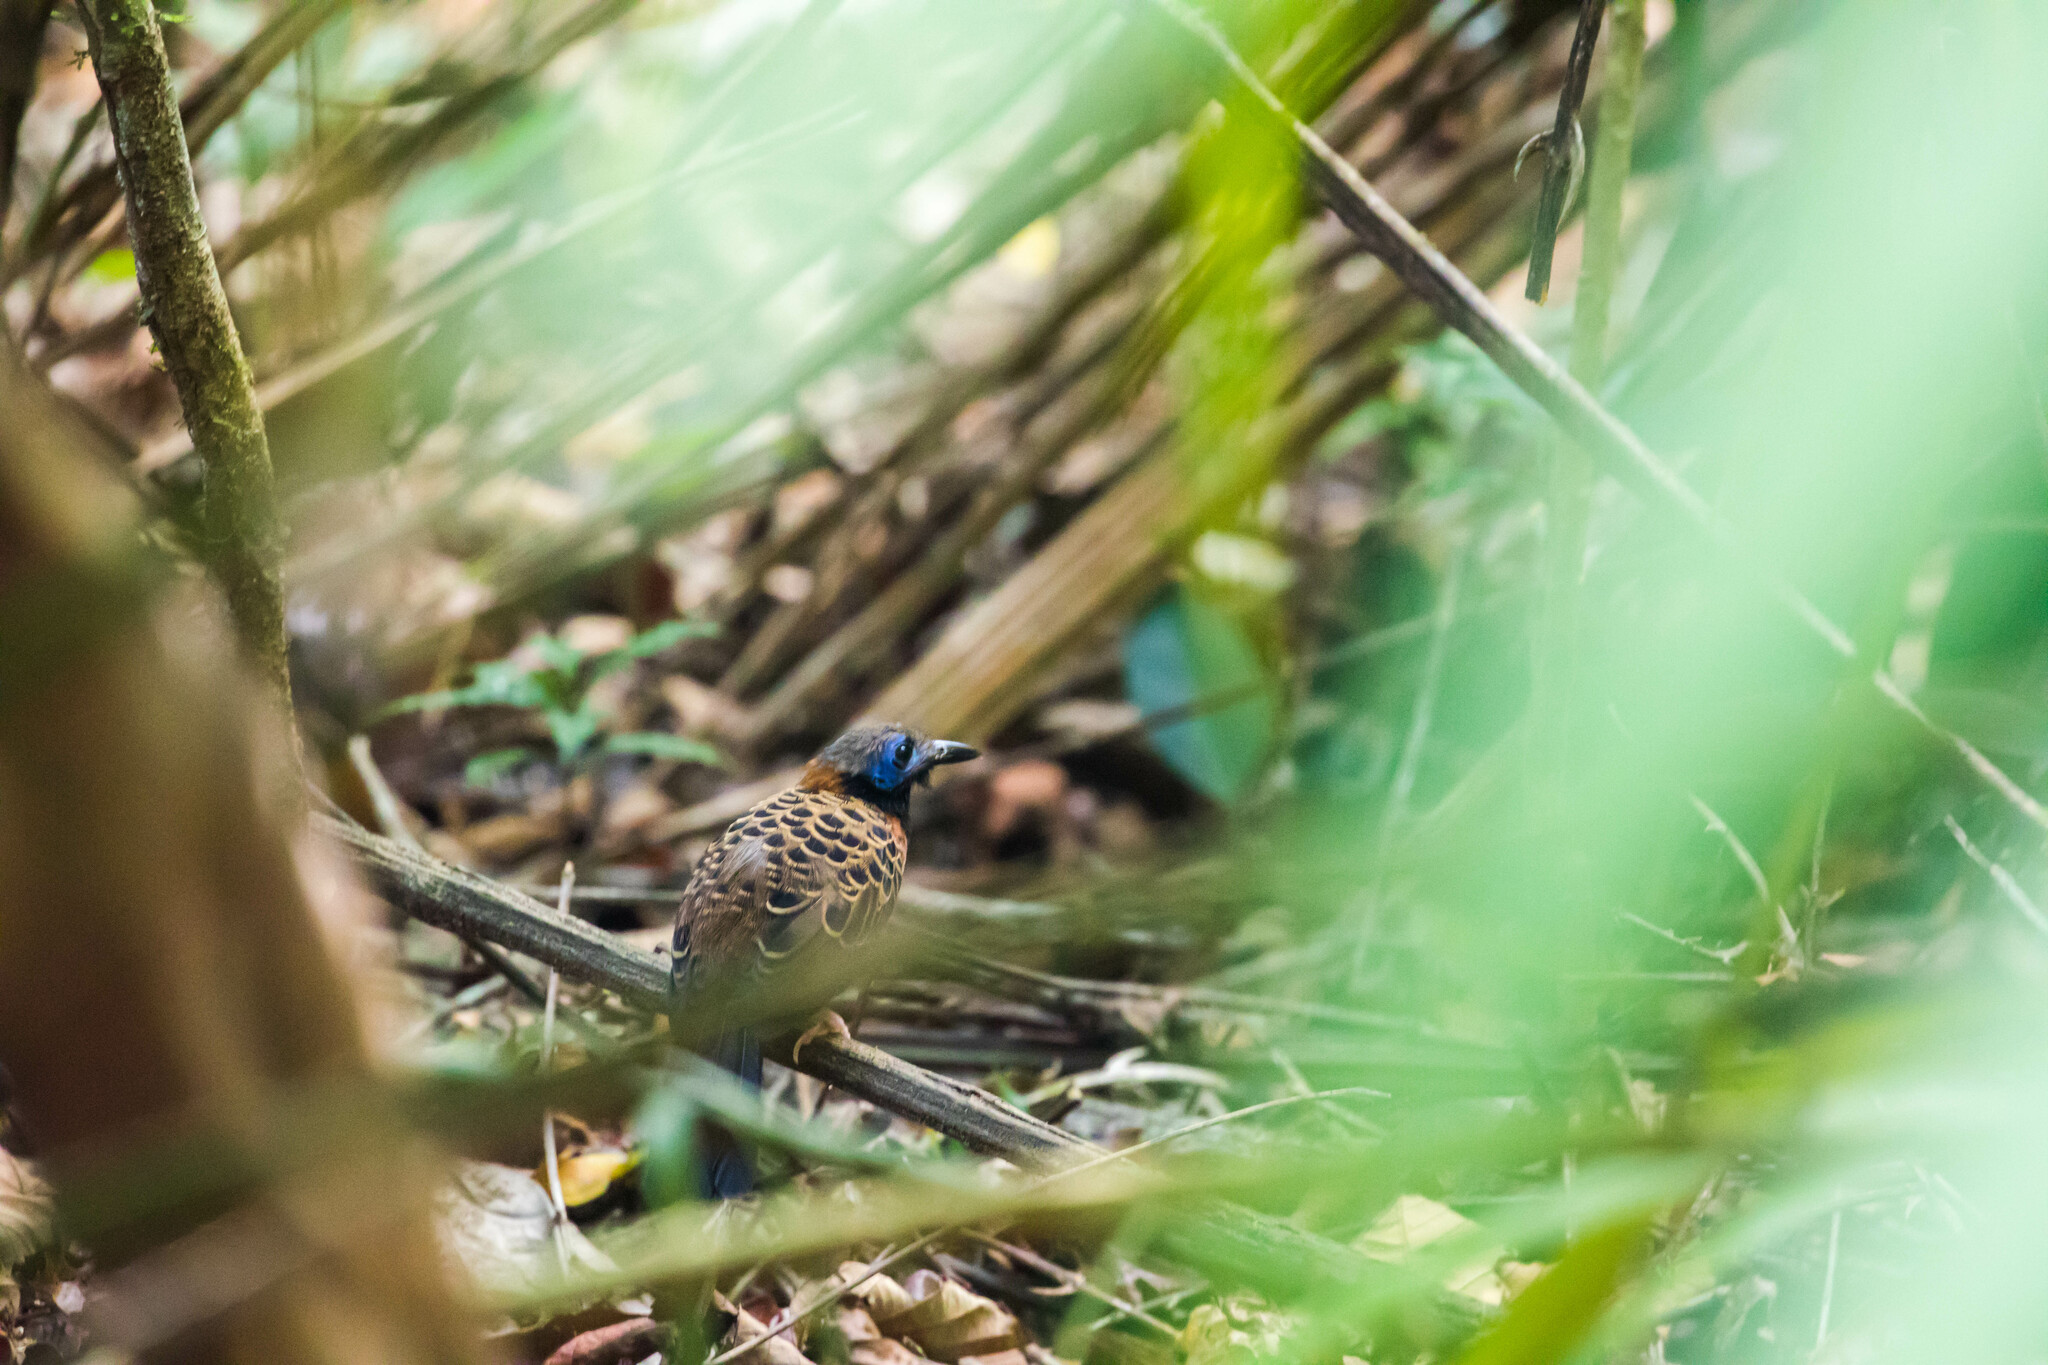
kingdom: Animalia
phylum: Chordata
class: Aves
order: Passeriformes
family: Thamnophilidae
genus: Phaenostictus
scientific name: Phaenostictus mcleannani
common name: Ocellated antbird
